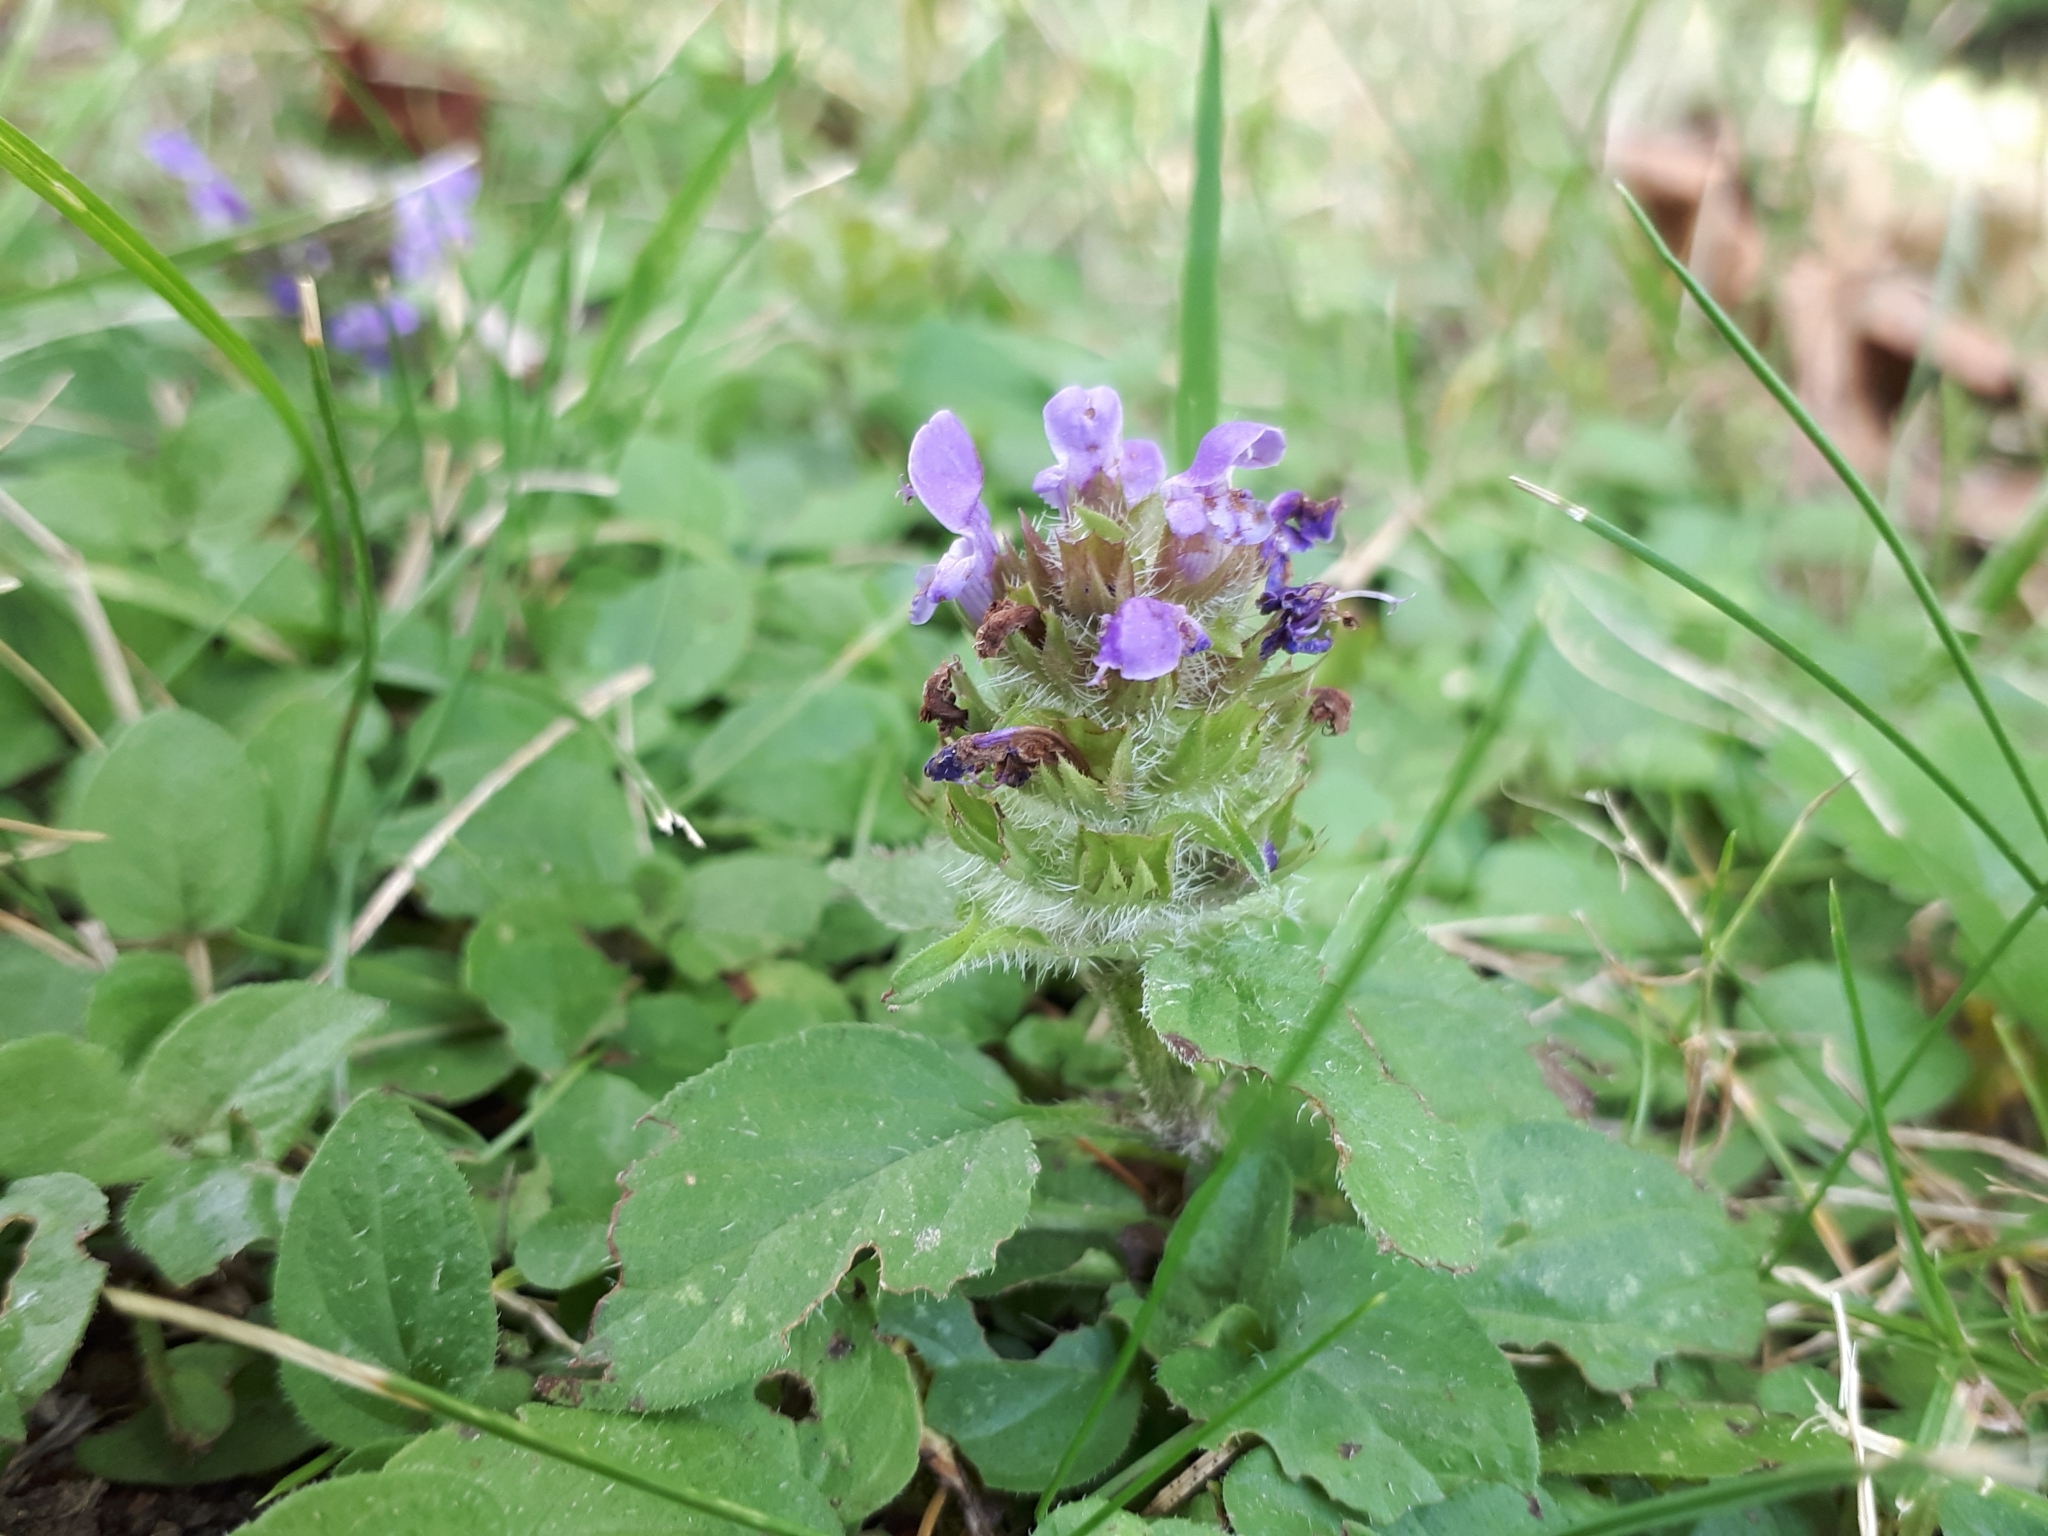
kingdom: Plantae
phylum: Tracheophyta
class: Magnoliopsida
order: Lamiales
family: Lamiaceae
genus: Prunella
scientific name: Prunella vulgaris
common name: Heal-all
